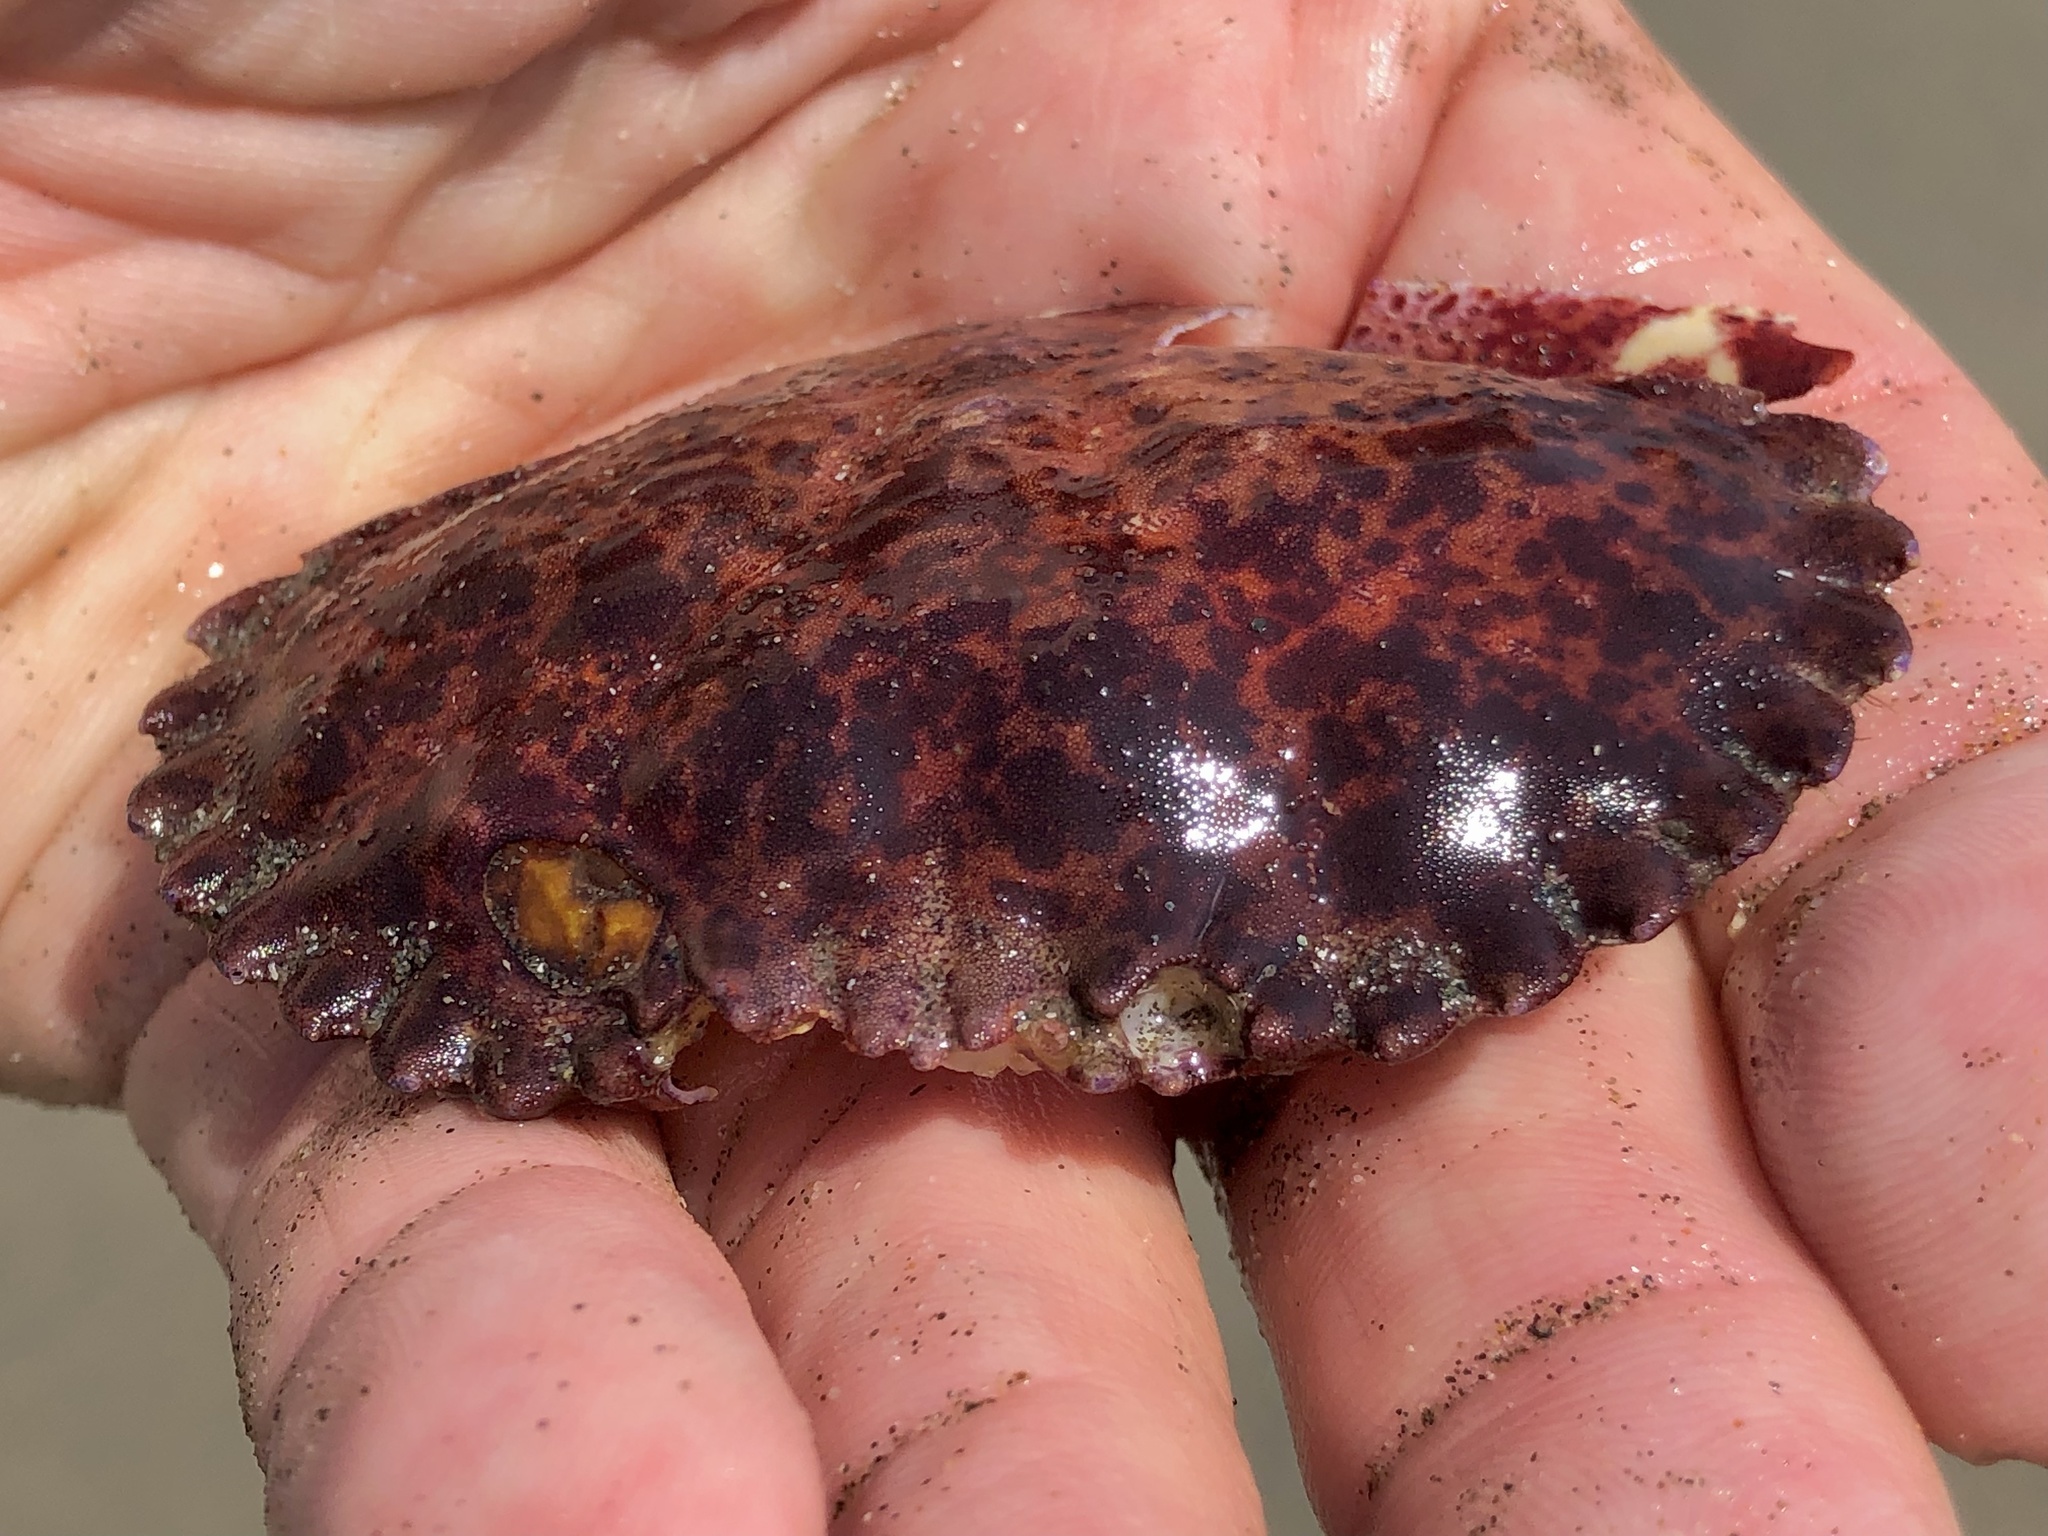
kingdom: Animalia
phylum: Arthropoda
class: Malacostraca
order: Decapoda
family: Cancridae
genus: Romaleon
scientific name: Romaleon antennarium
